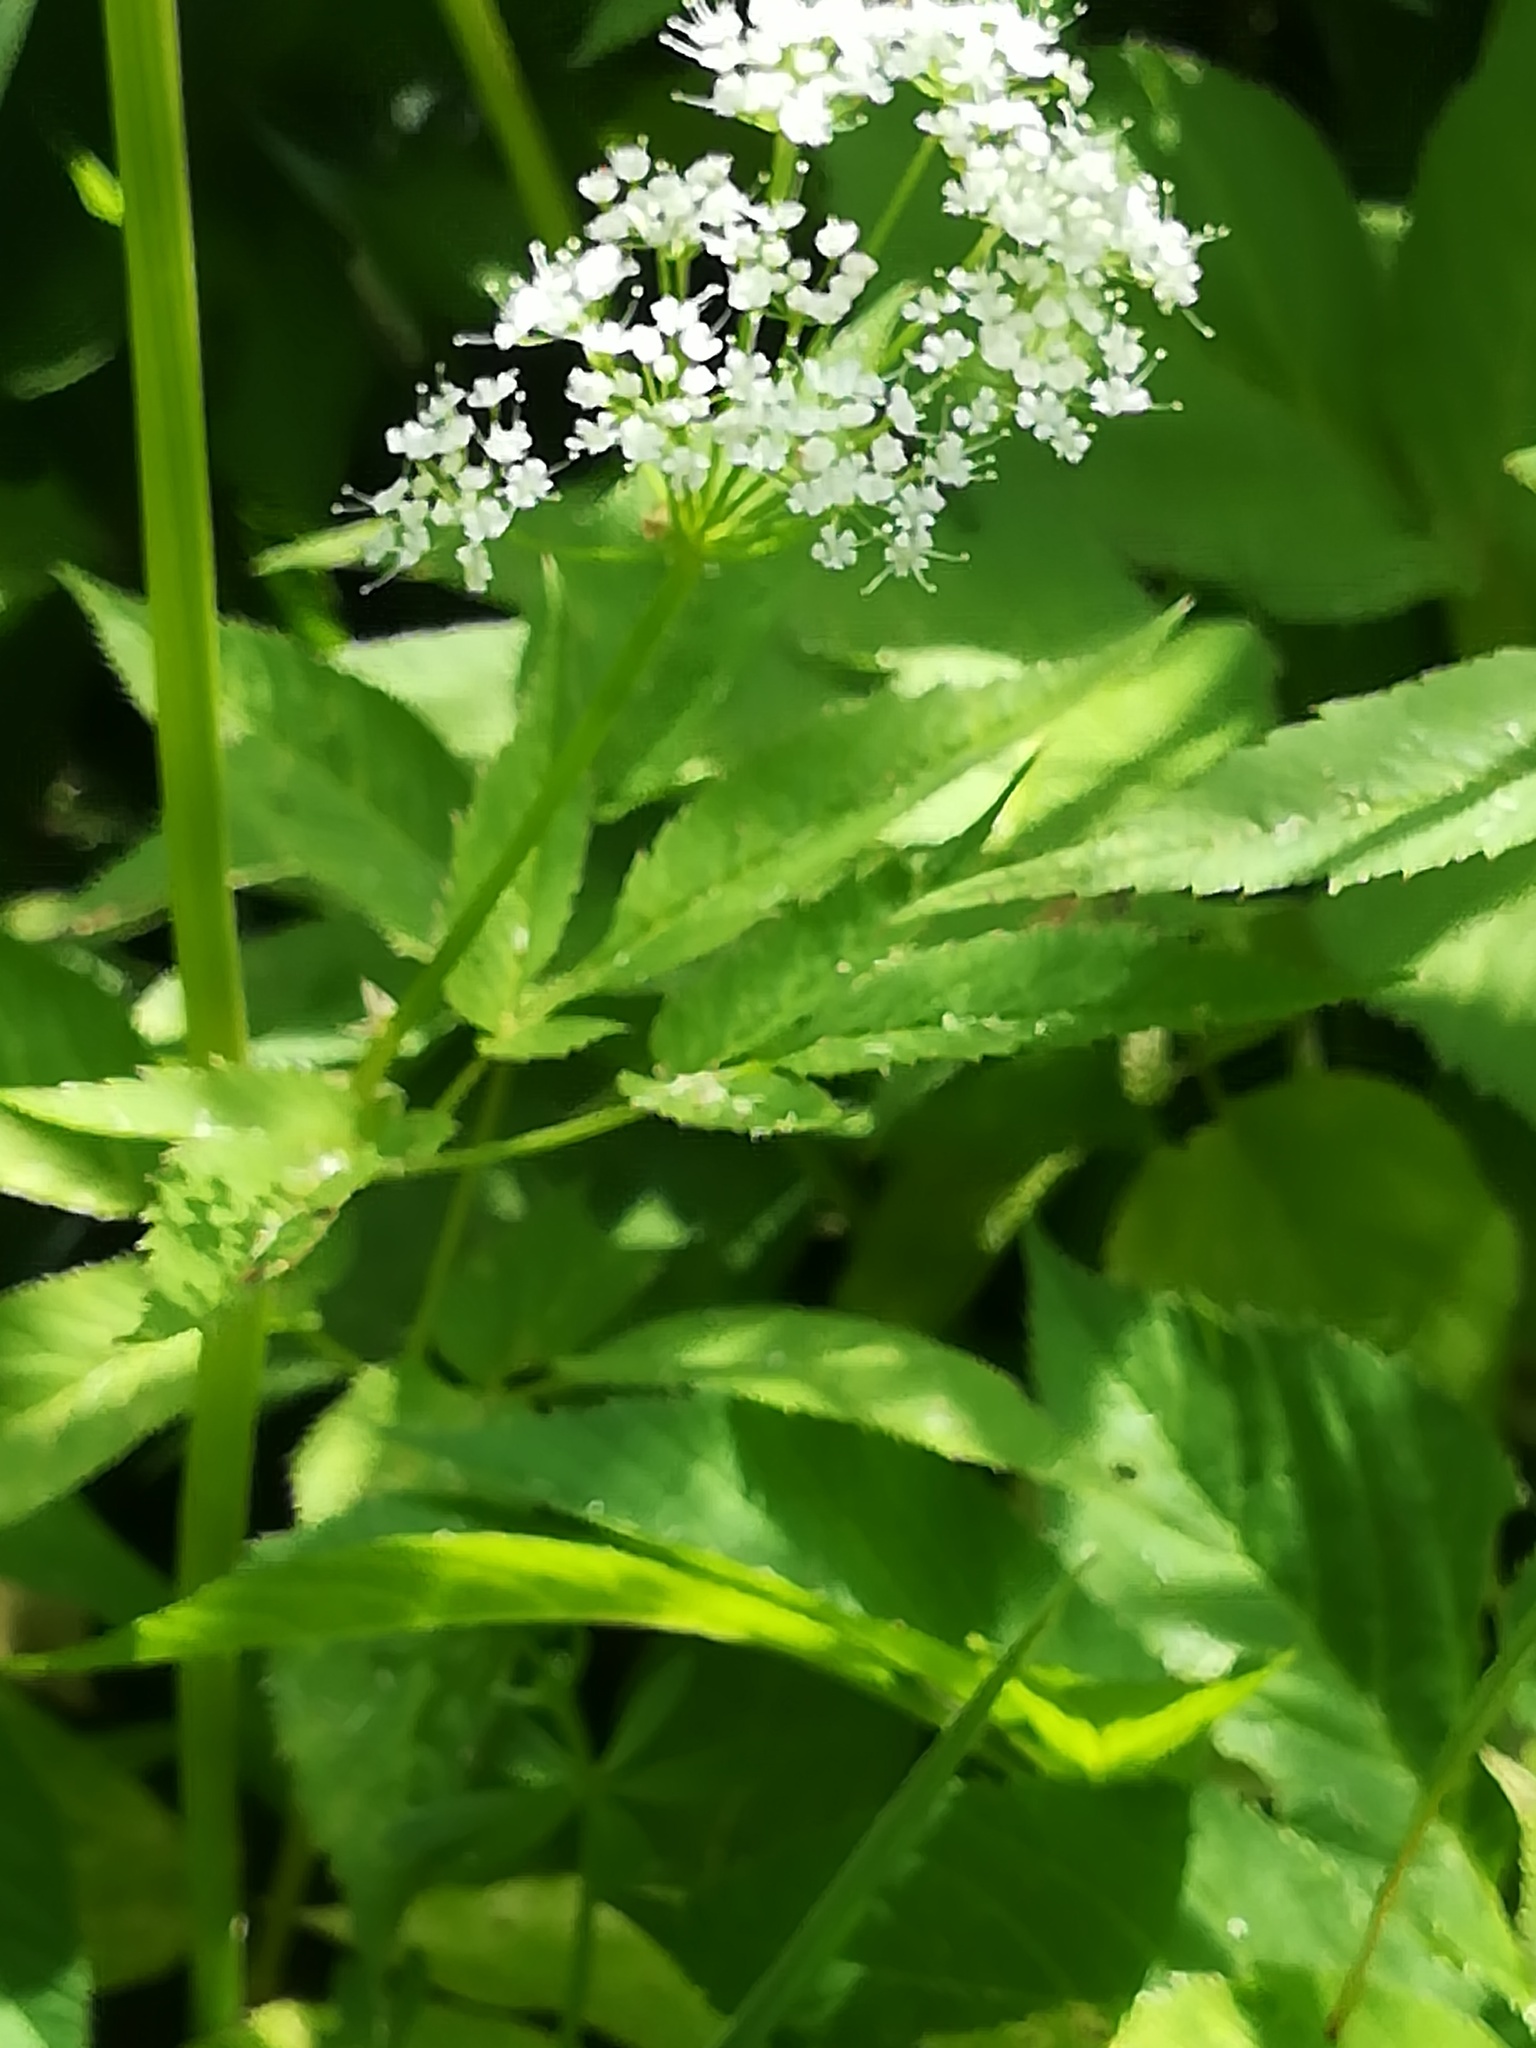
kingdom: Plantae
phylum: Tracheophyta
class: Magnoliopsida
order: Apiales
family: Apiaceae
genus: Aegopodium
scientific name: Aegopodium podagraria
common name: Ground-elder
